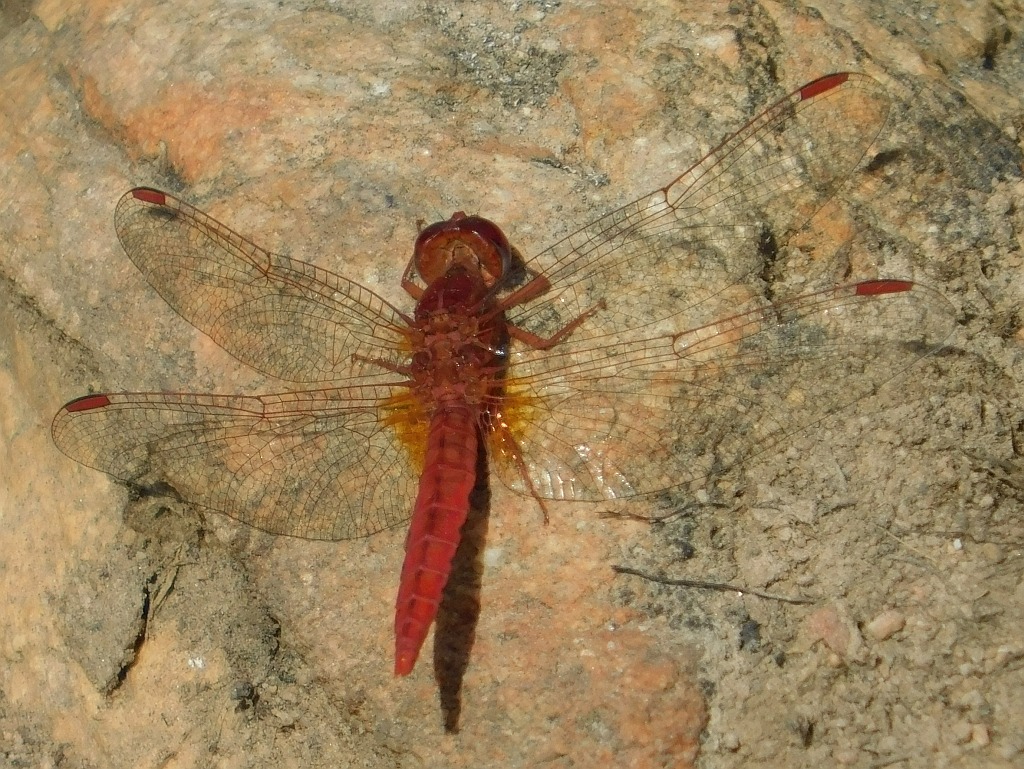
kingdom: Animalia
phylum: Arthropoda
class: Insecta
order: Odonata
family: Libellulidae
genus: Crocothemis
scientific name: Crocothemis sanguinolenta
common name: Little scarlet
